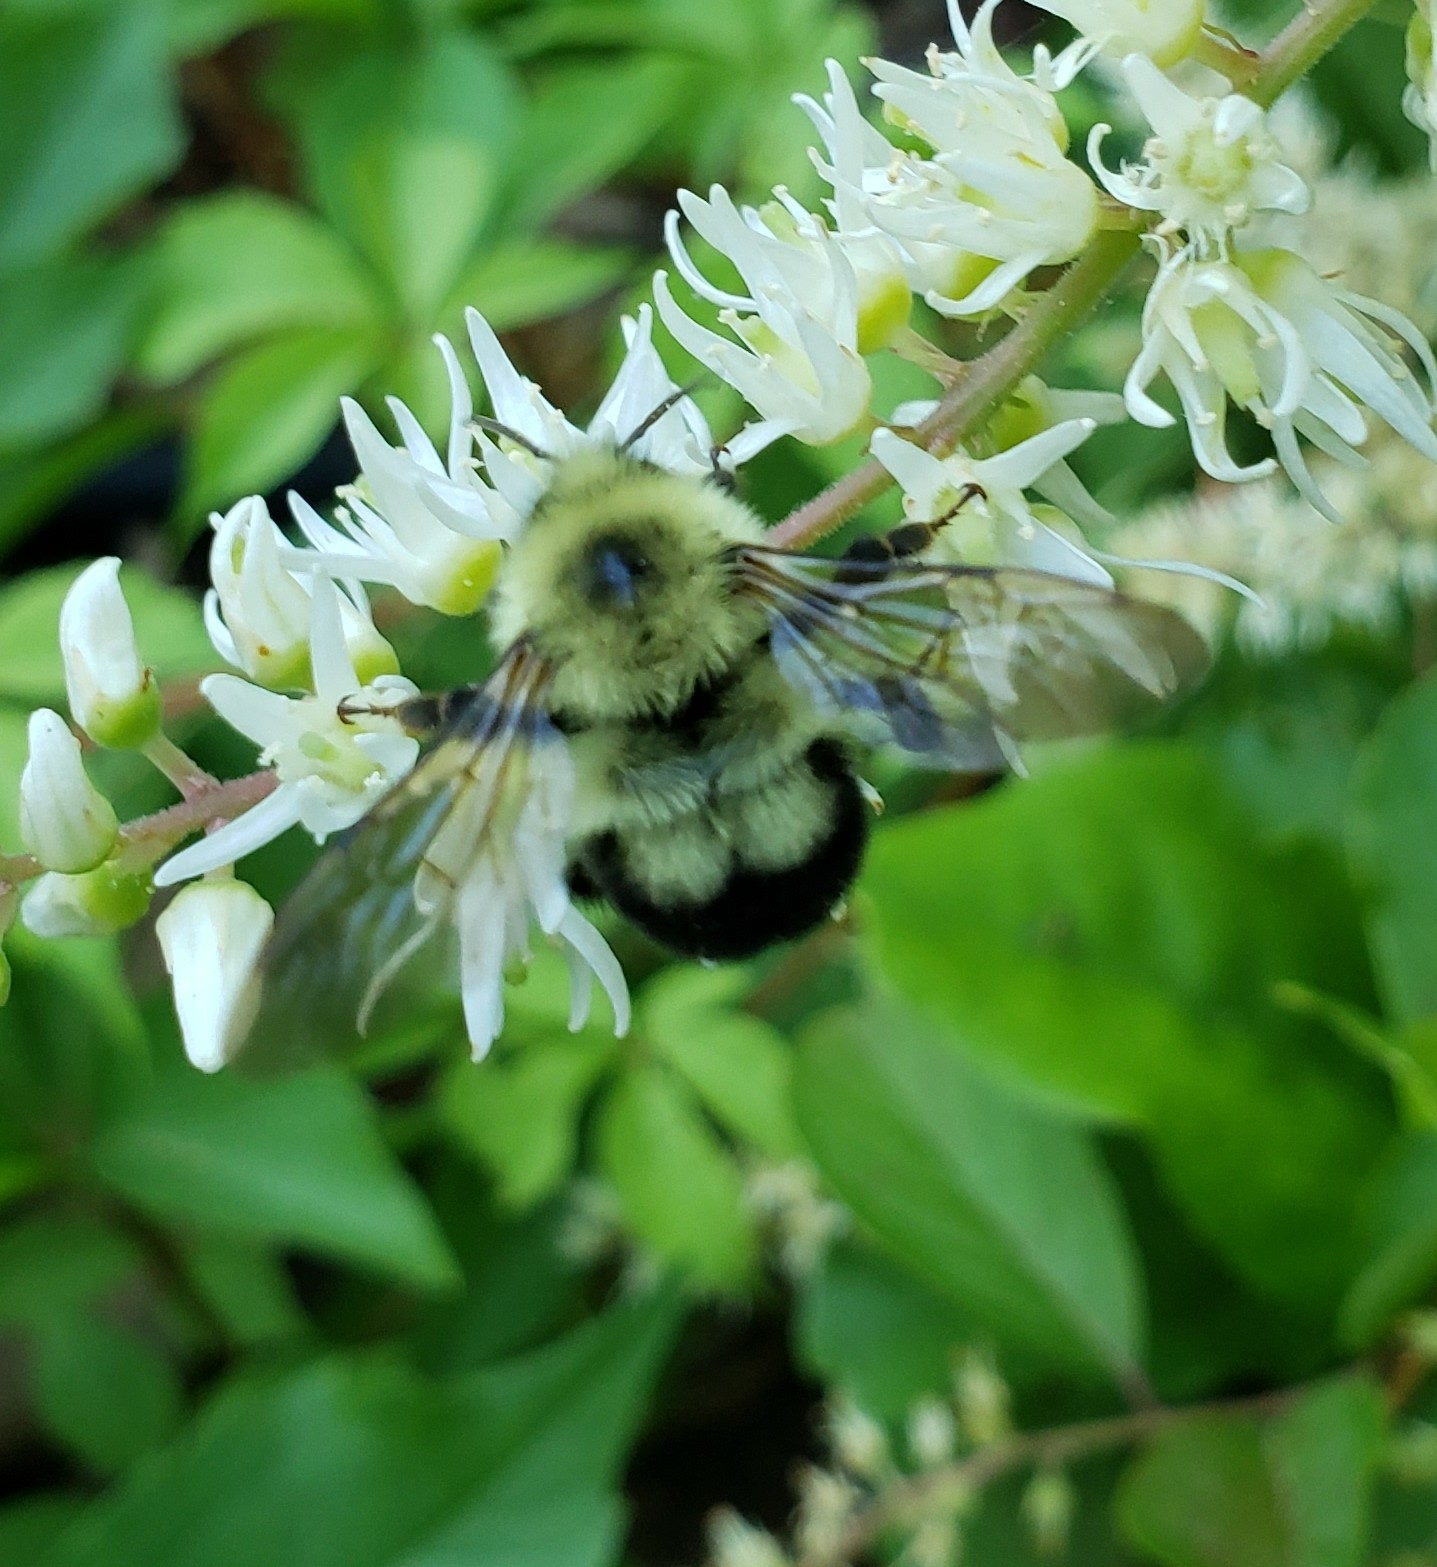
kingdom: Animalia
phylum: Arthropoda
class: Insecta
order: Hymenoptera
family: Apidae
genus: Bombus
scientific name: Bombus bimaculatus
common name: Two-spotted bumble bee
